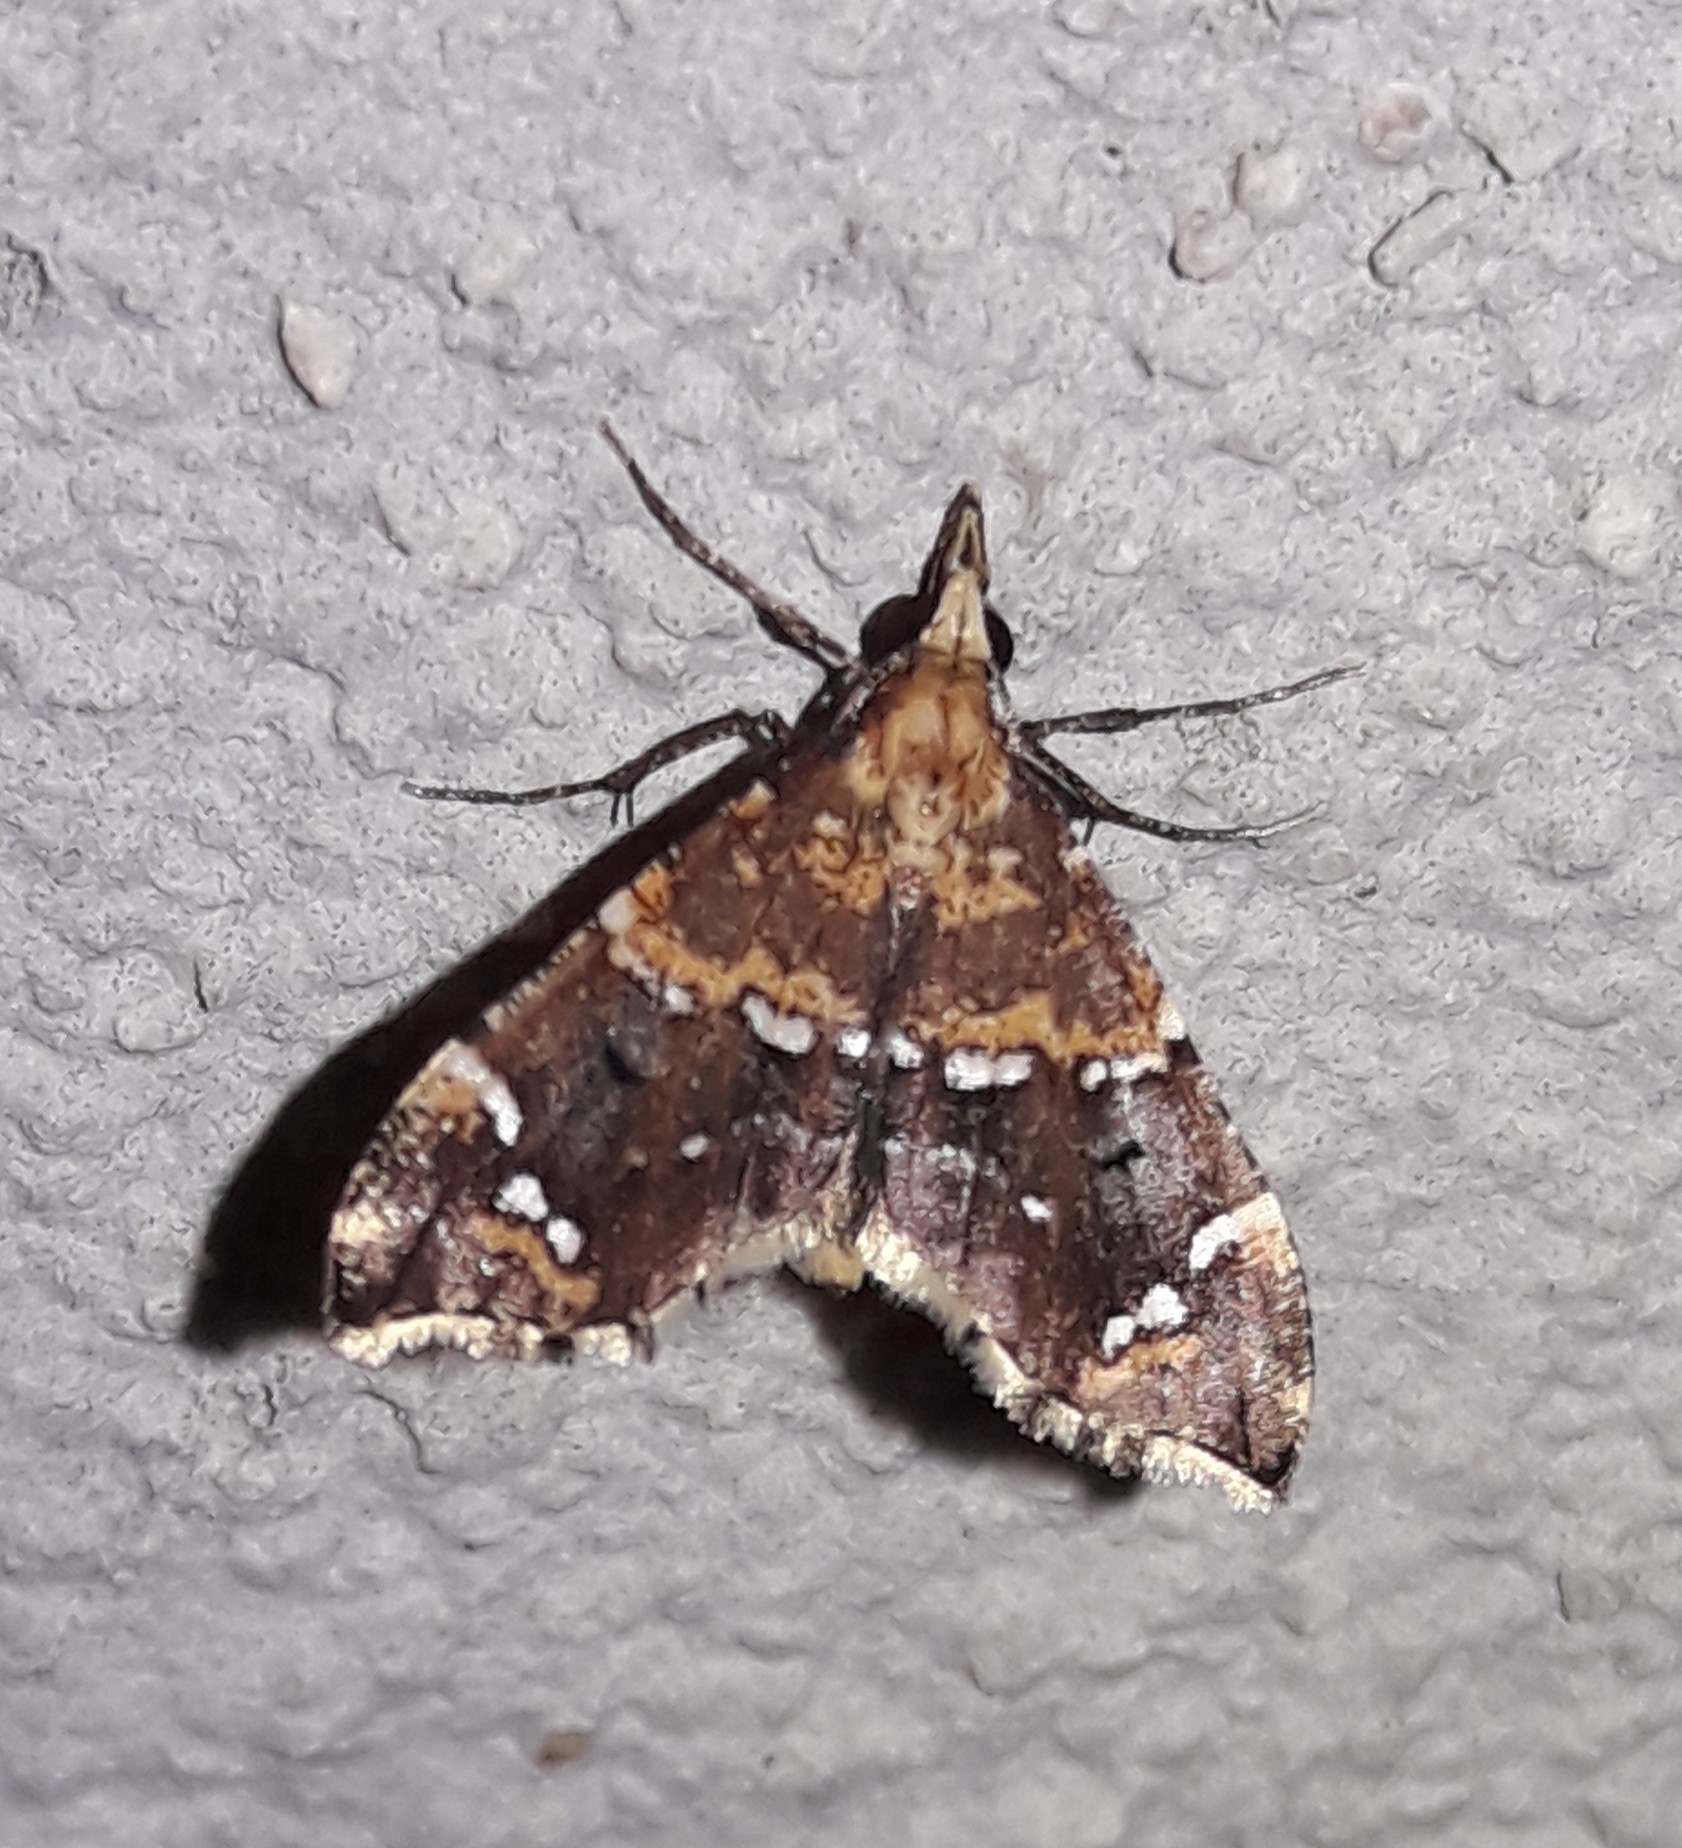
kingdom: Animalia
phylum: Arthropoda
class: Insecta
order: Lepidoptera
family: Geometridae
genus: Psaliodes
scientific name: Psaliodes electa
